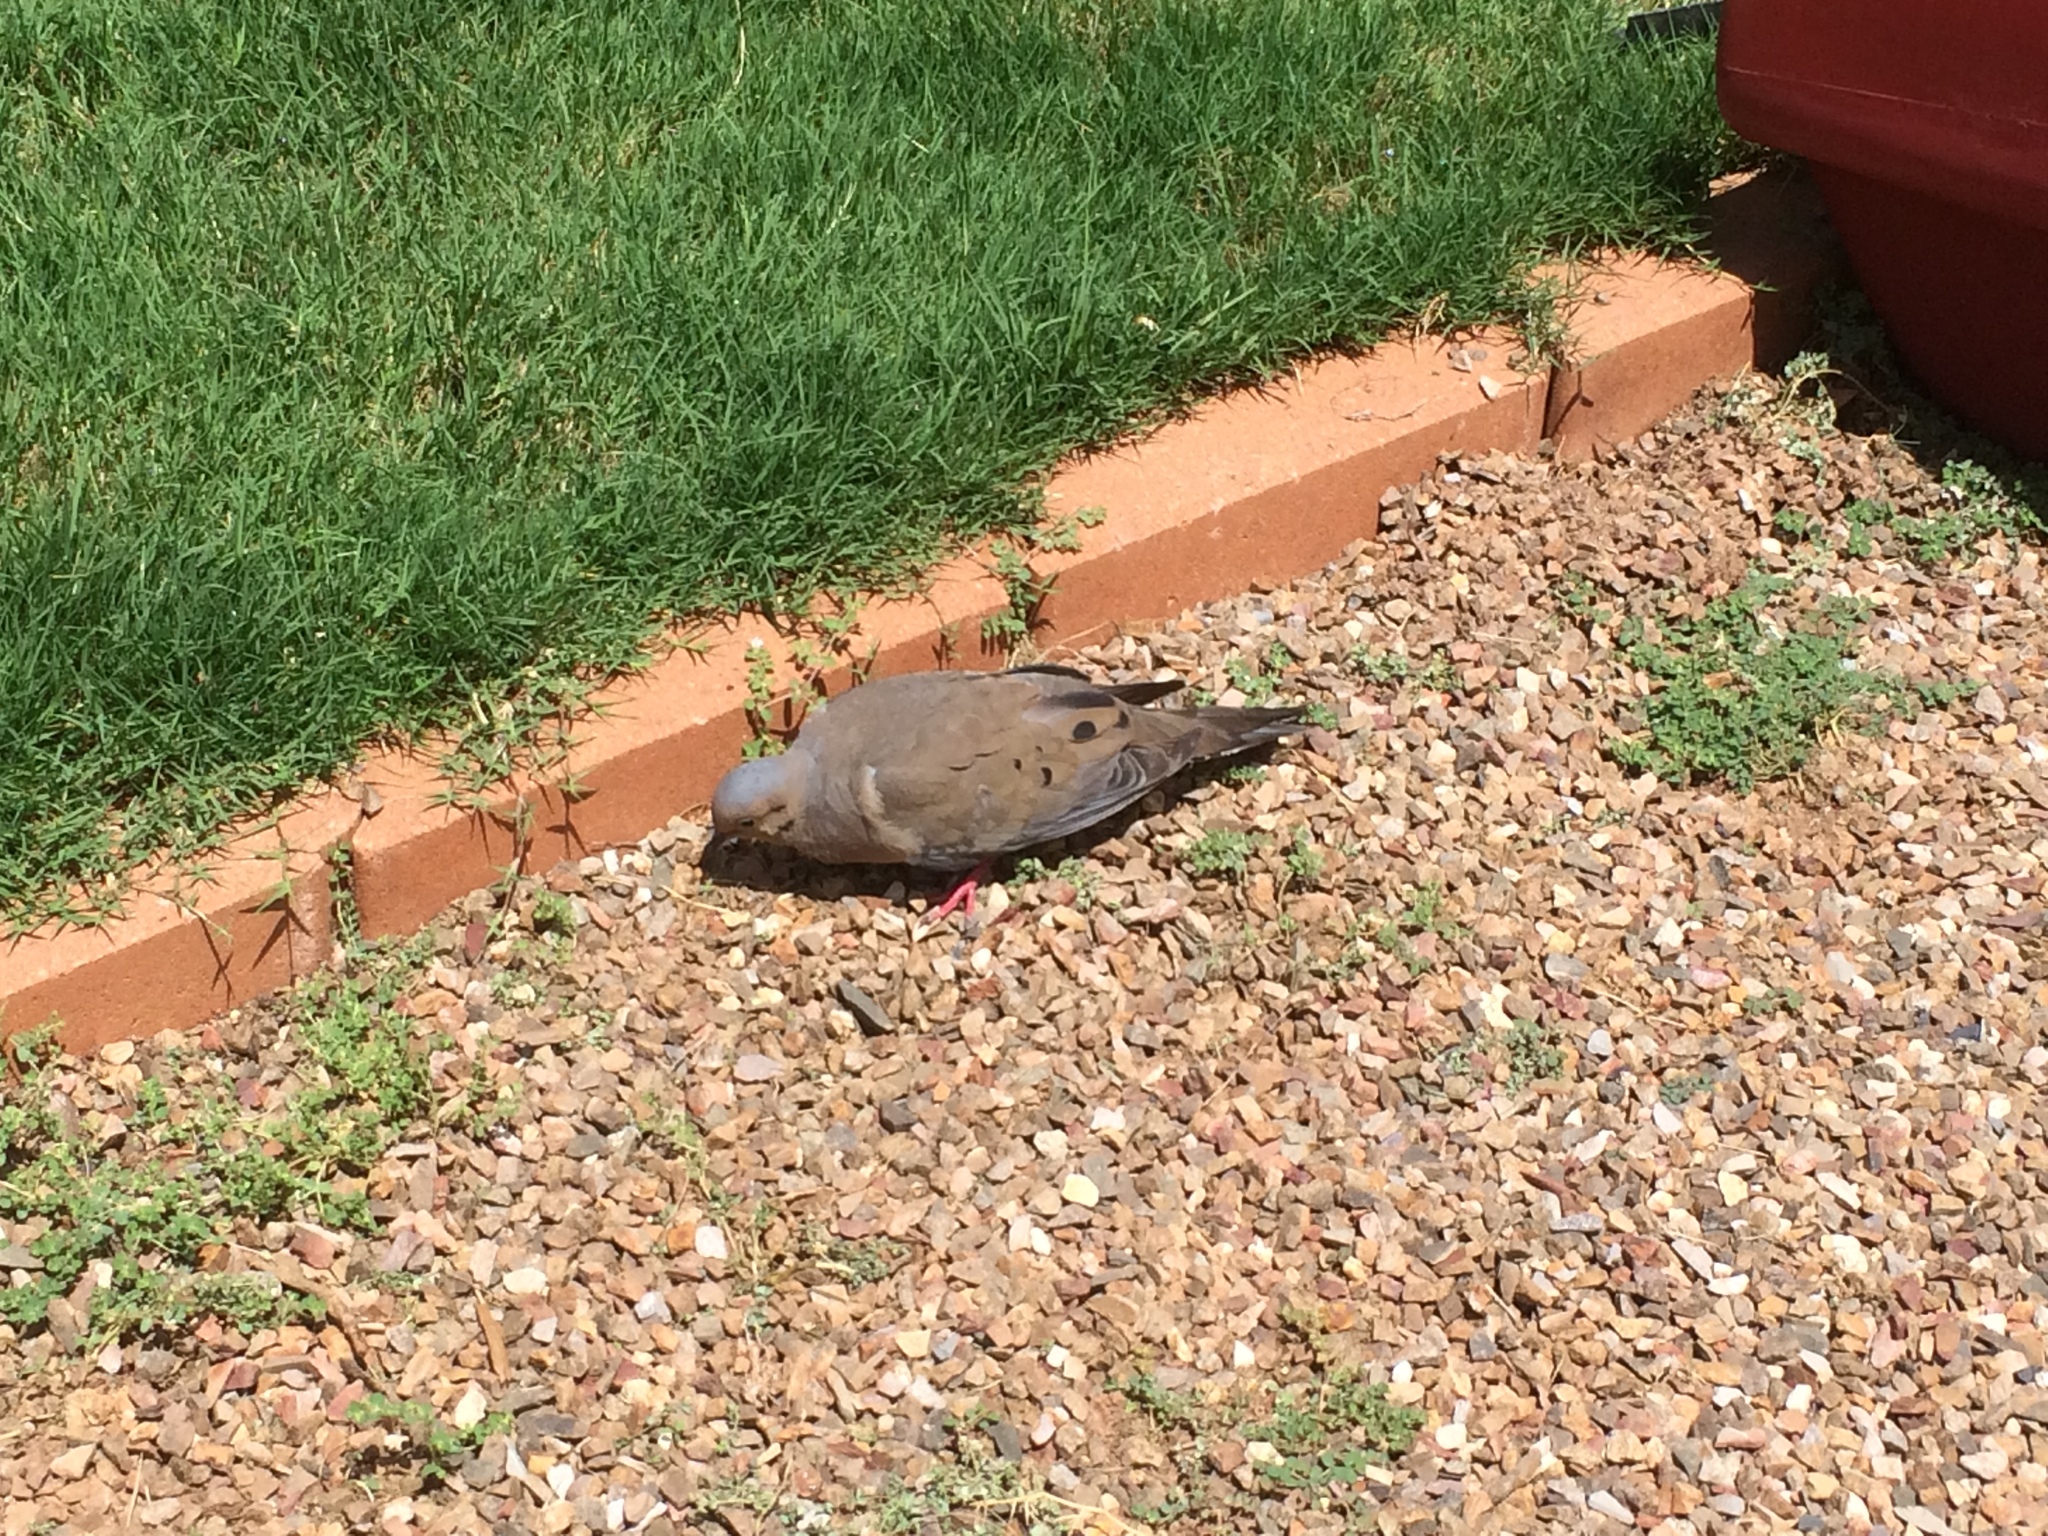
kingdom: Animalia
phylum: Chordata
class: Aves
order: Columbiformes
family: Columbidae
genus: Zenaida
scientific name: Zenaida macroura
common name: Mourning dove
